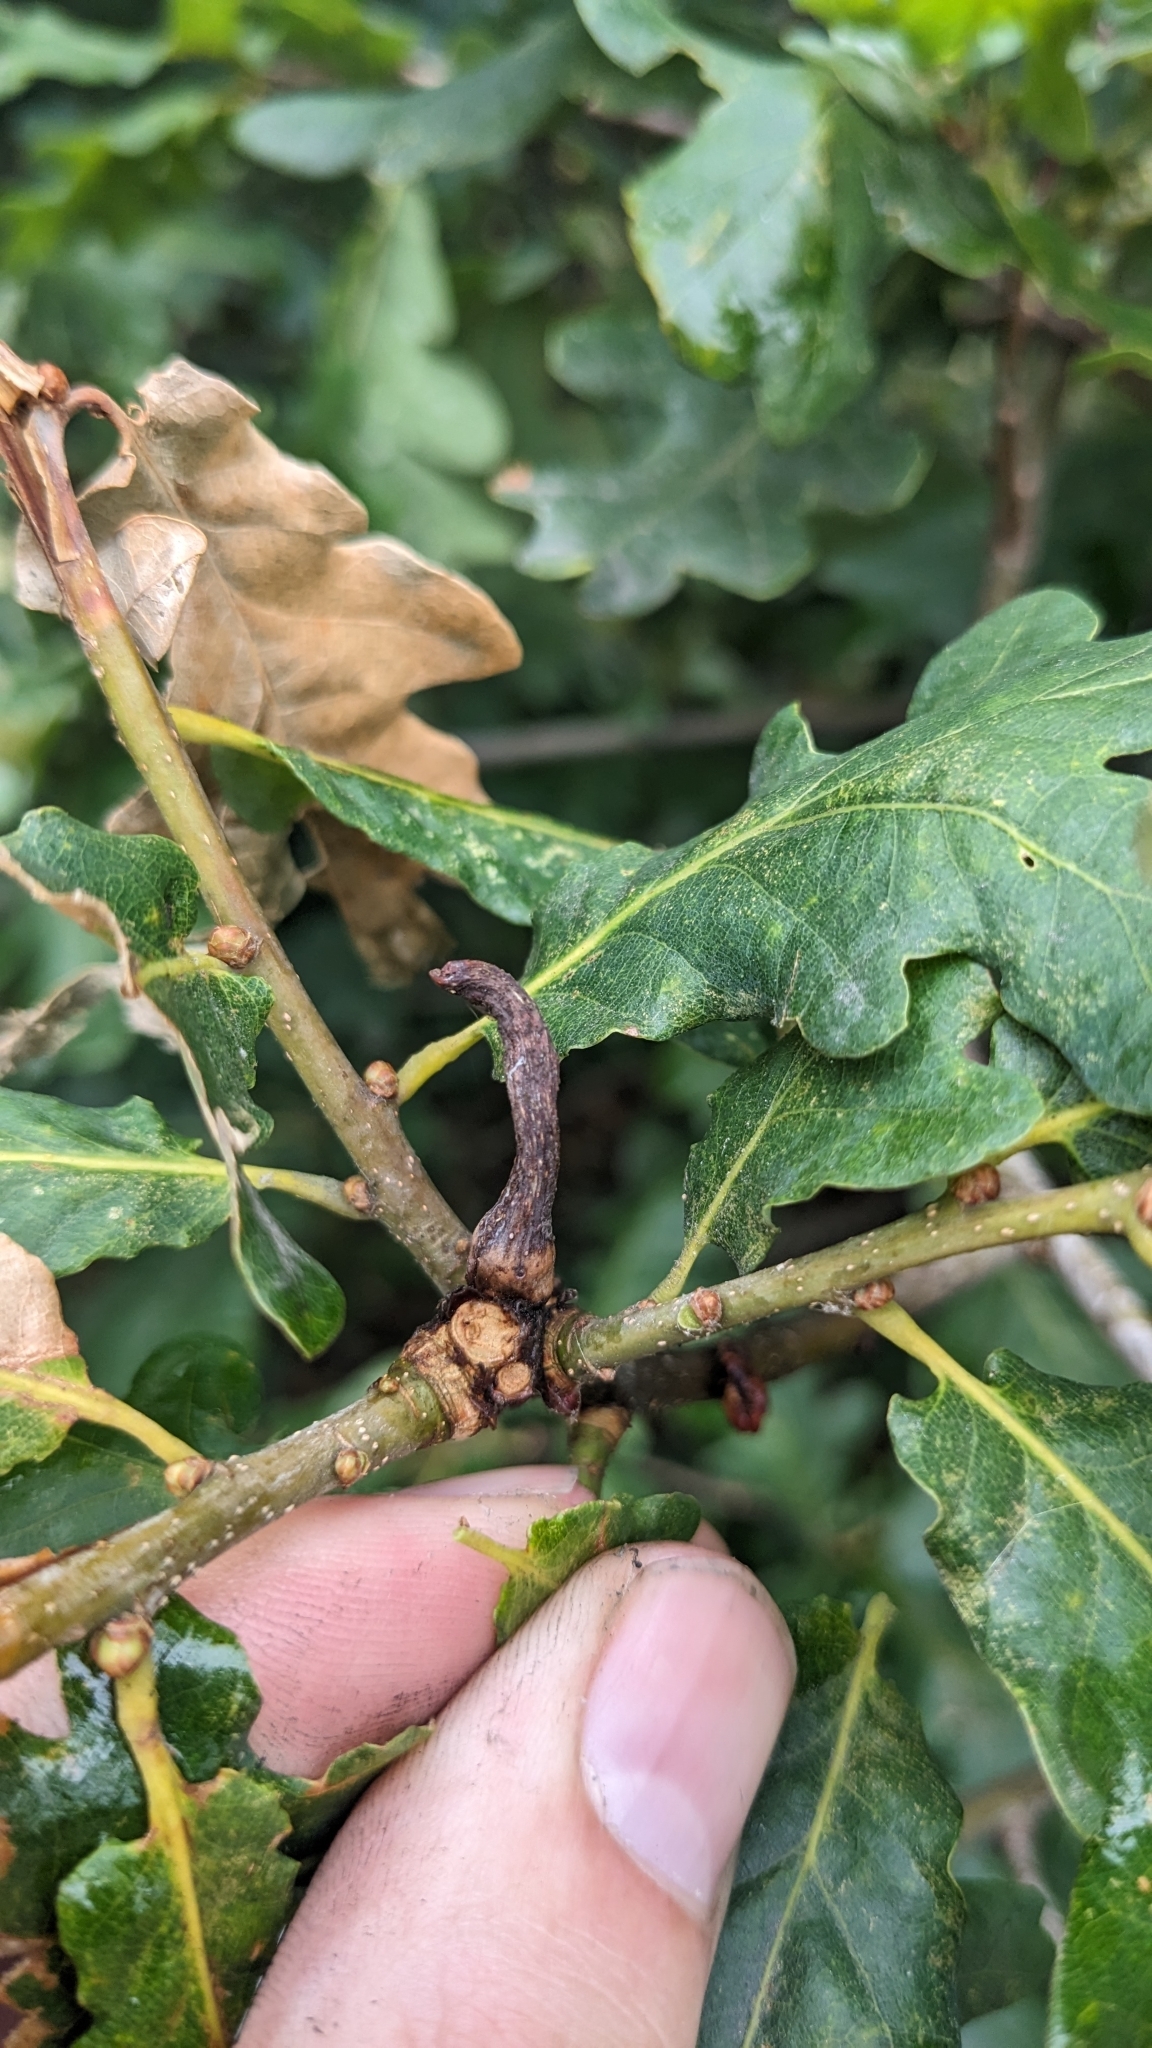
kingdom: Animalia
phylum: Arthropoda
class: Insecta
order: Hymenoptera
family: Cynipidae
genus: Andricus
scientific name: Andricus aries
